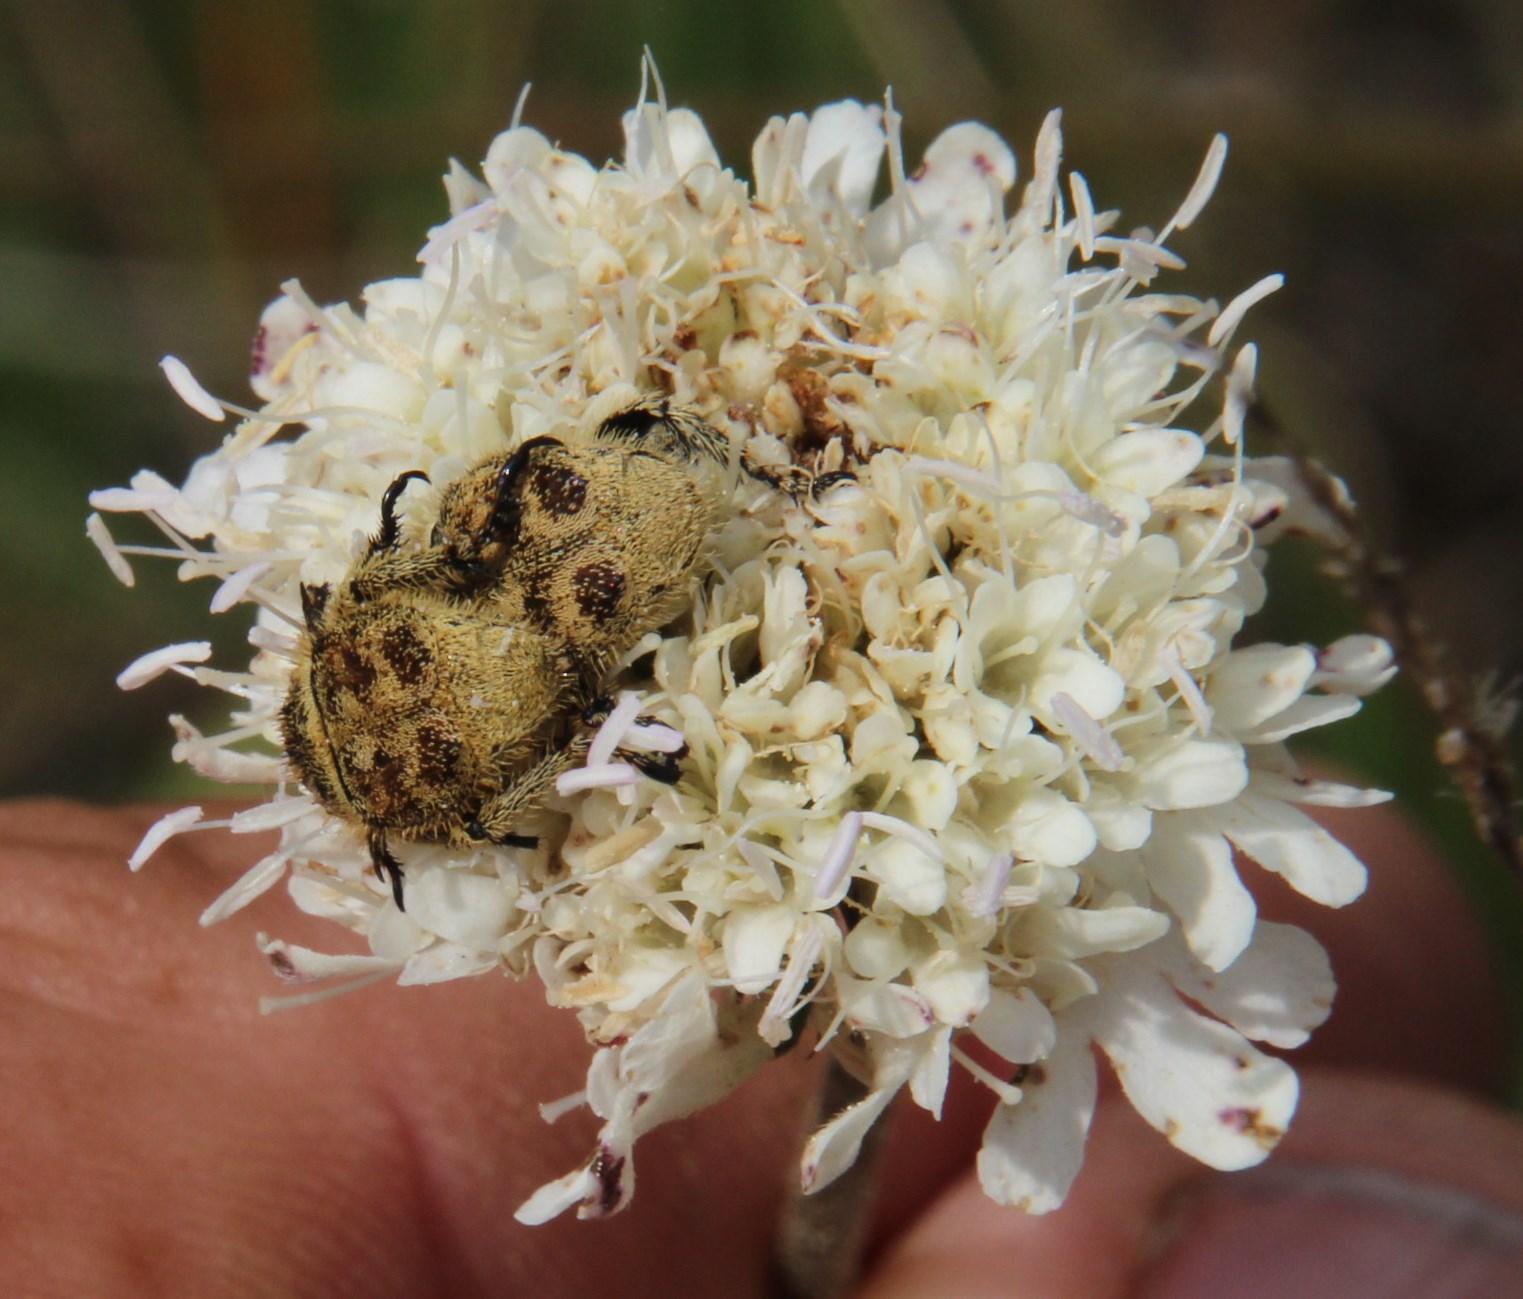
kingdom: Plantae
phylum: Tracheophyta
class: Magnoliopsida
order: Dipsacales
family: Caprifoliaceae
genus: Scabiosa
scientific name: Scabiosa columbaria
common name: Small scabious
